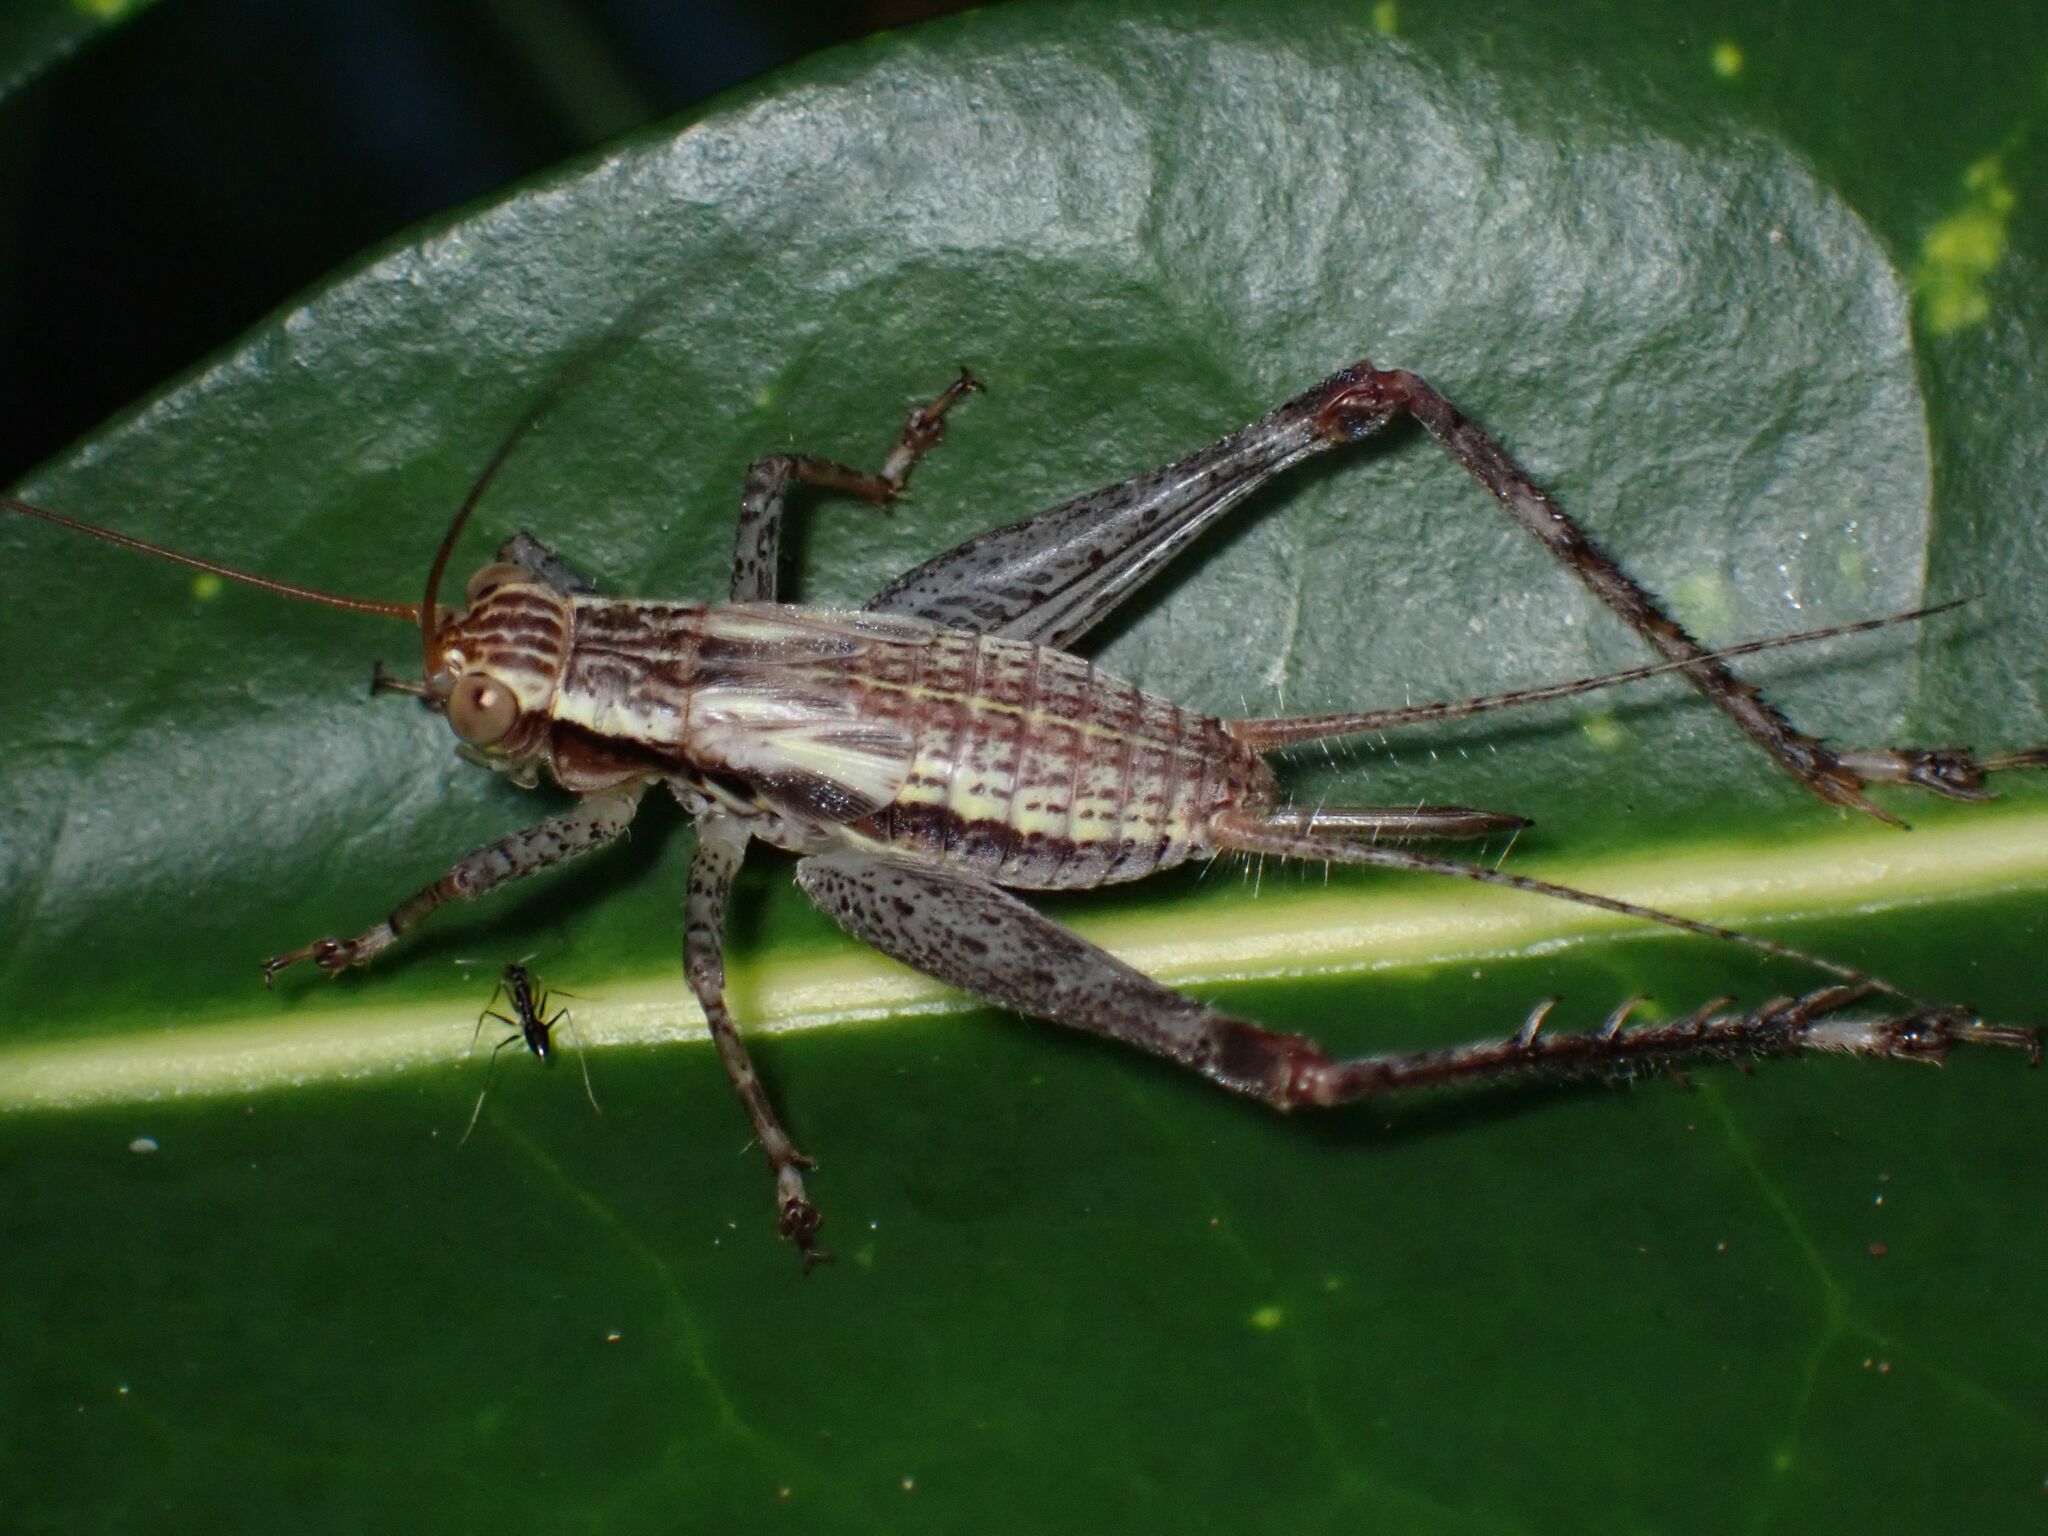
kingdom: Animalia
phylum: Arthropoda
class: Insecta
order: Orthoptera
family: Gryllidae
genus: Cardiodactylus
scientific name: Cardiodactylus novaeguineae
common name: Sad cricket
